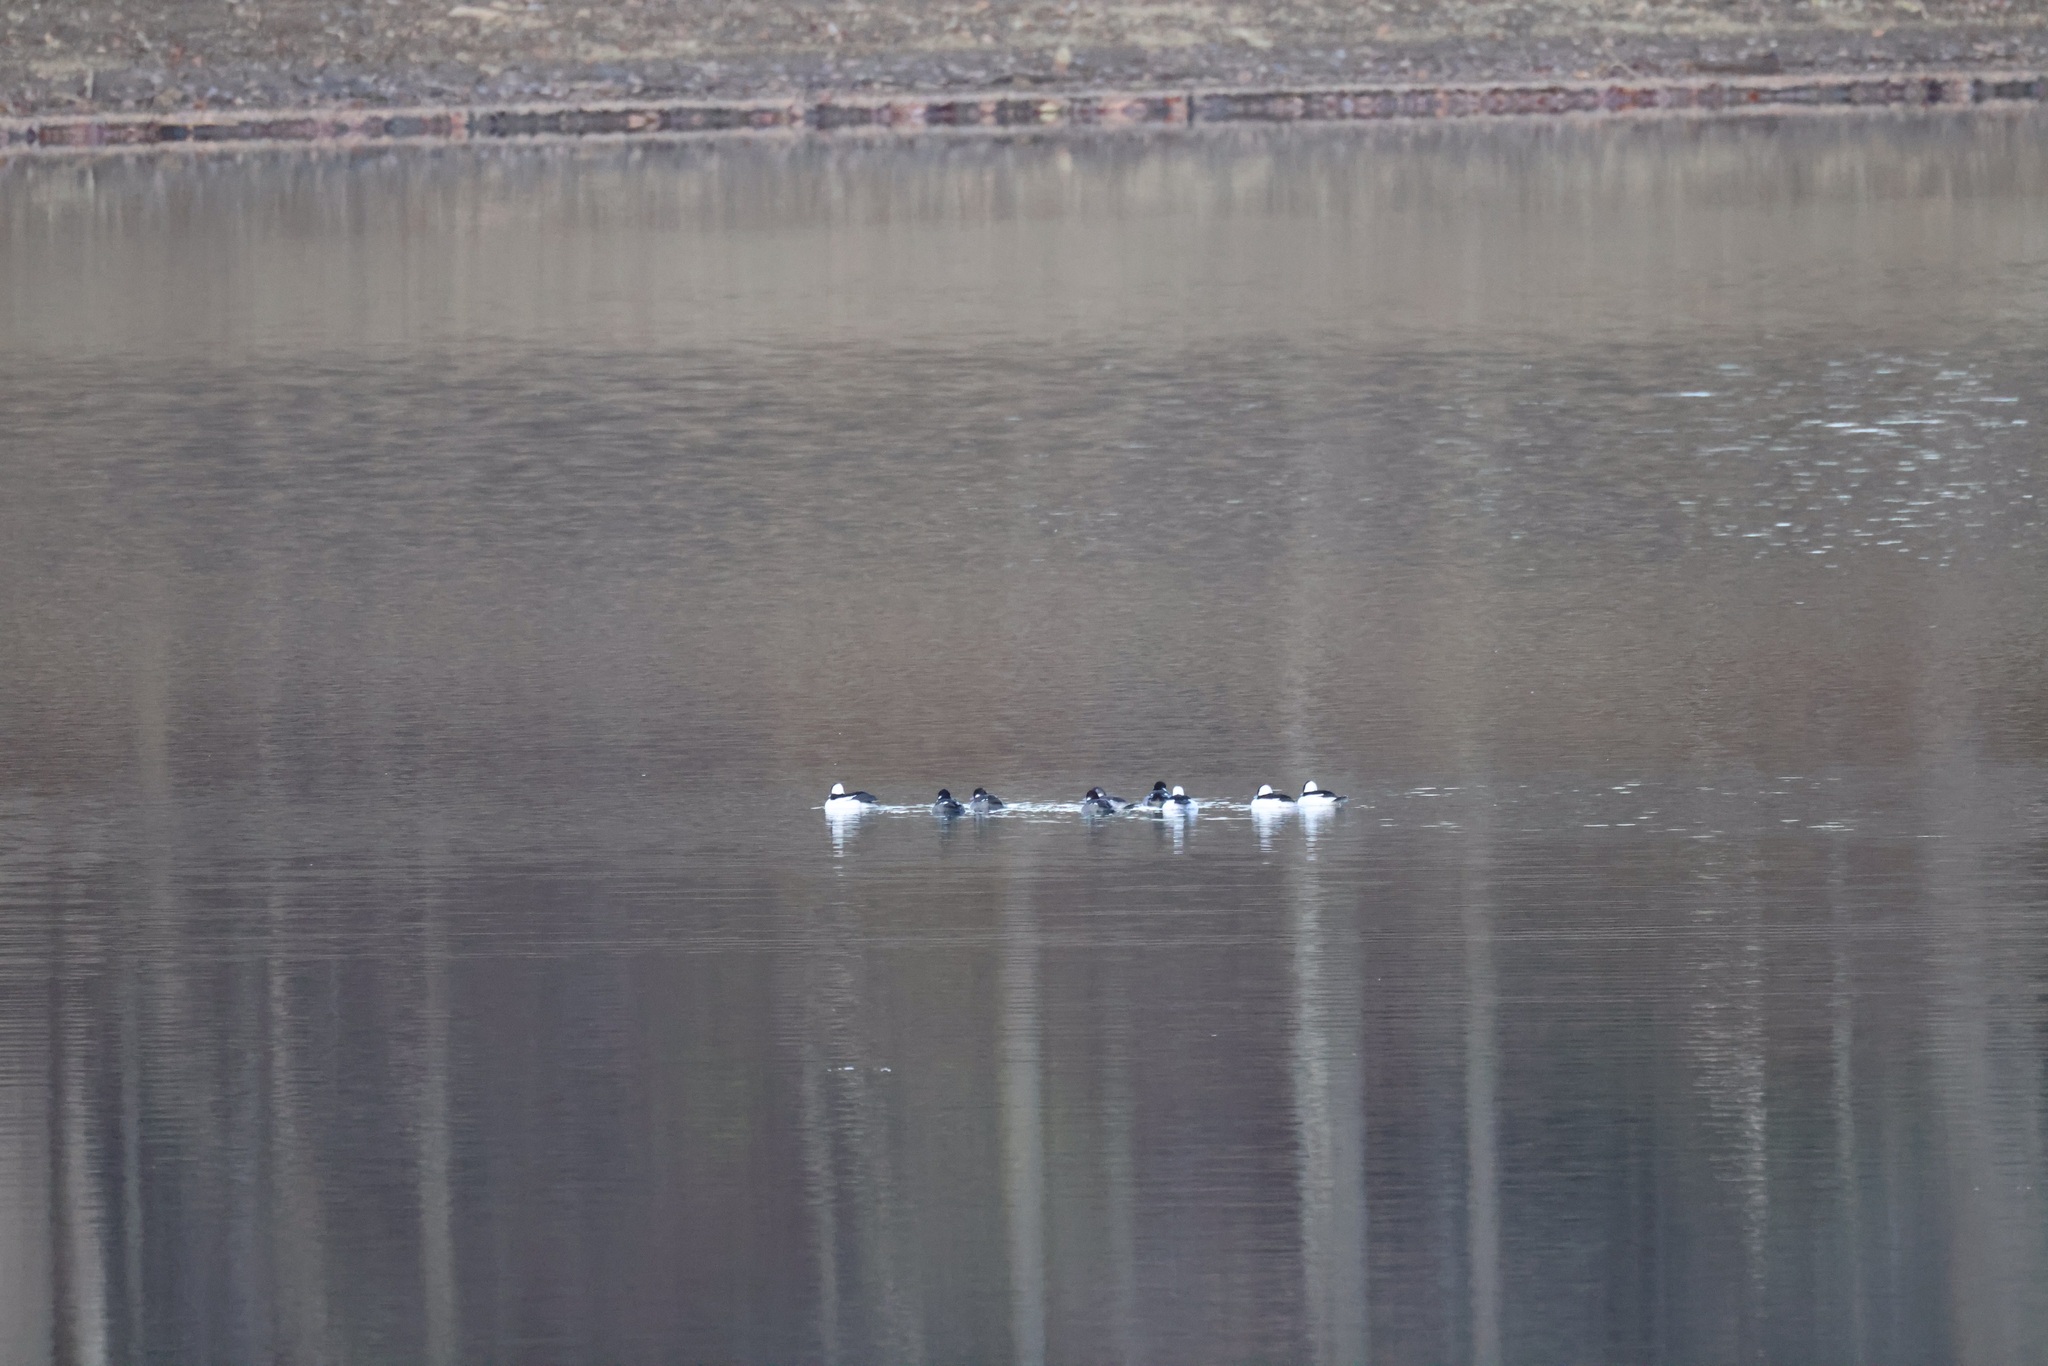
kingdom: Animalia
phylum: Chordata
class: Aves
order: Anseriformes
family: Anatidae
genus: Bucephala
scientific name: Bucephala albeola
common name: Bufflehead
